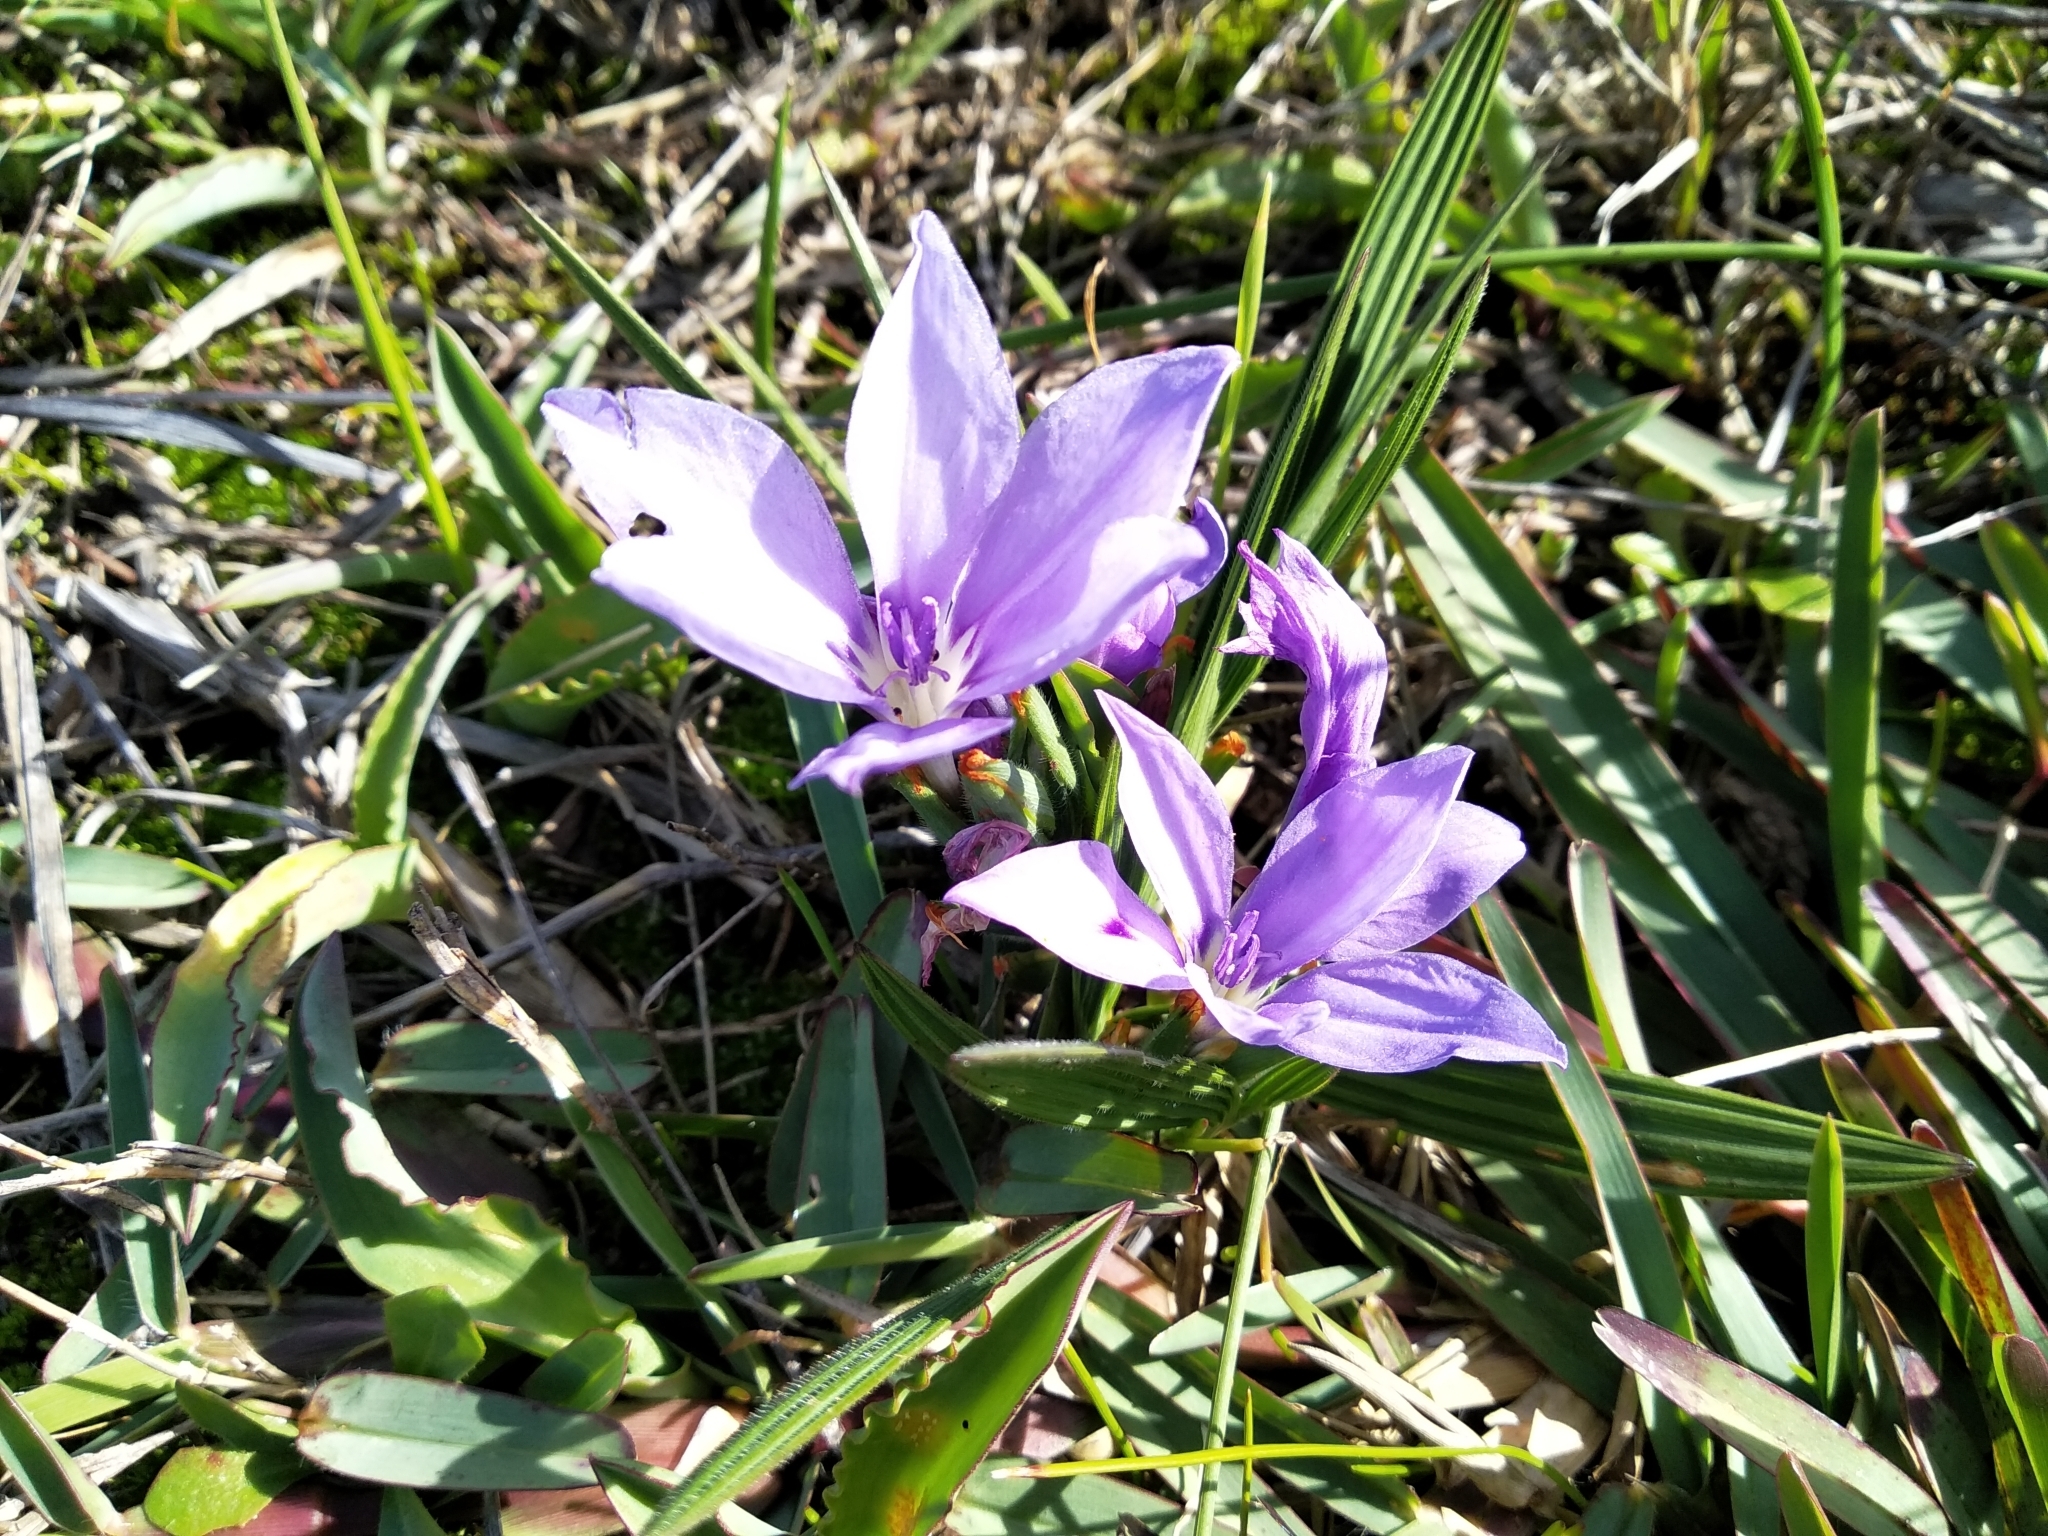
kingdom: Plantae
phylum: Tracheophyta
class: Liliopsida
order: Asparagales
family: Iridaceae
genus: Babiana
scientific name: Babiana villosula
